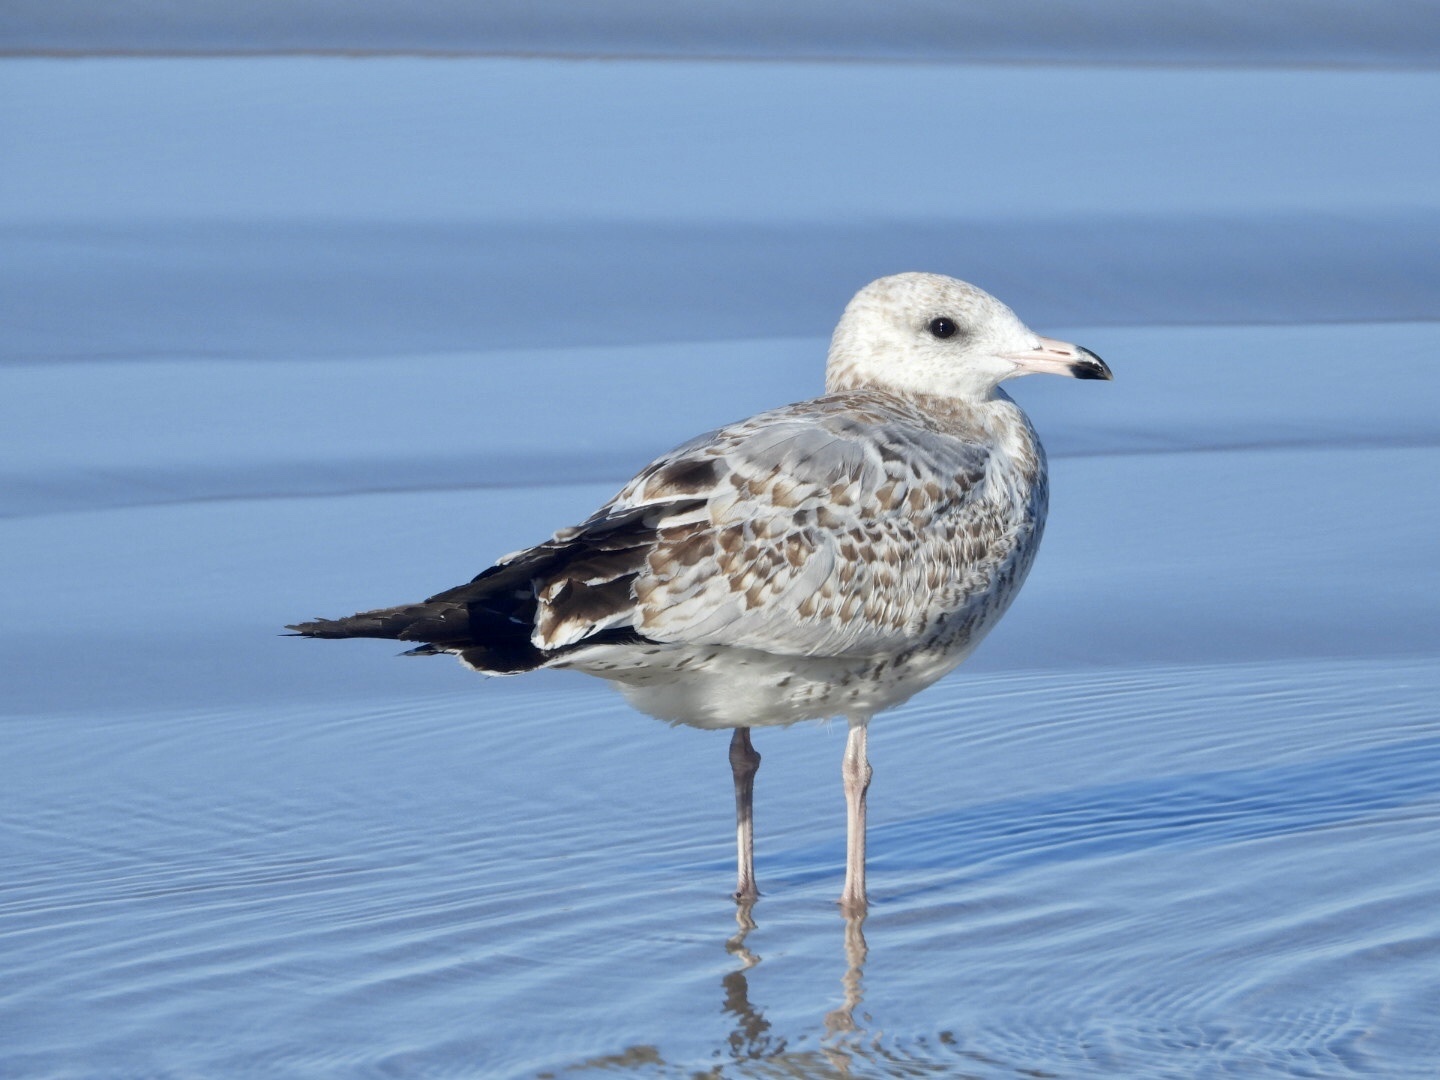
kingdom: Animalia
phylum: Chordata
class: Aves
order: Charadriiformes
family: Laridae
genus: Larus
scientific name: Larus delawarensis
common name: Ring-billed gull
